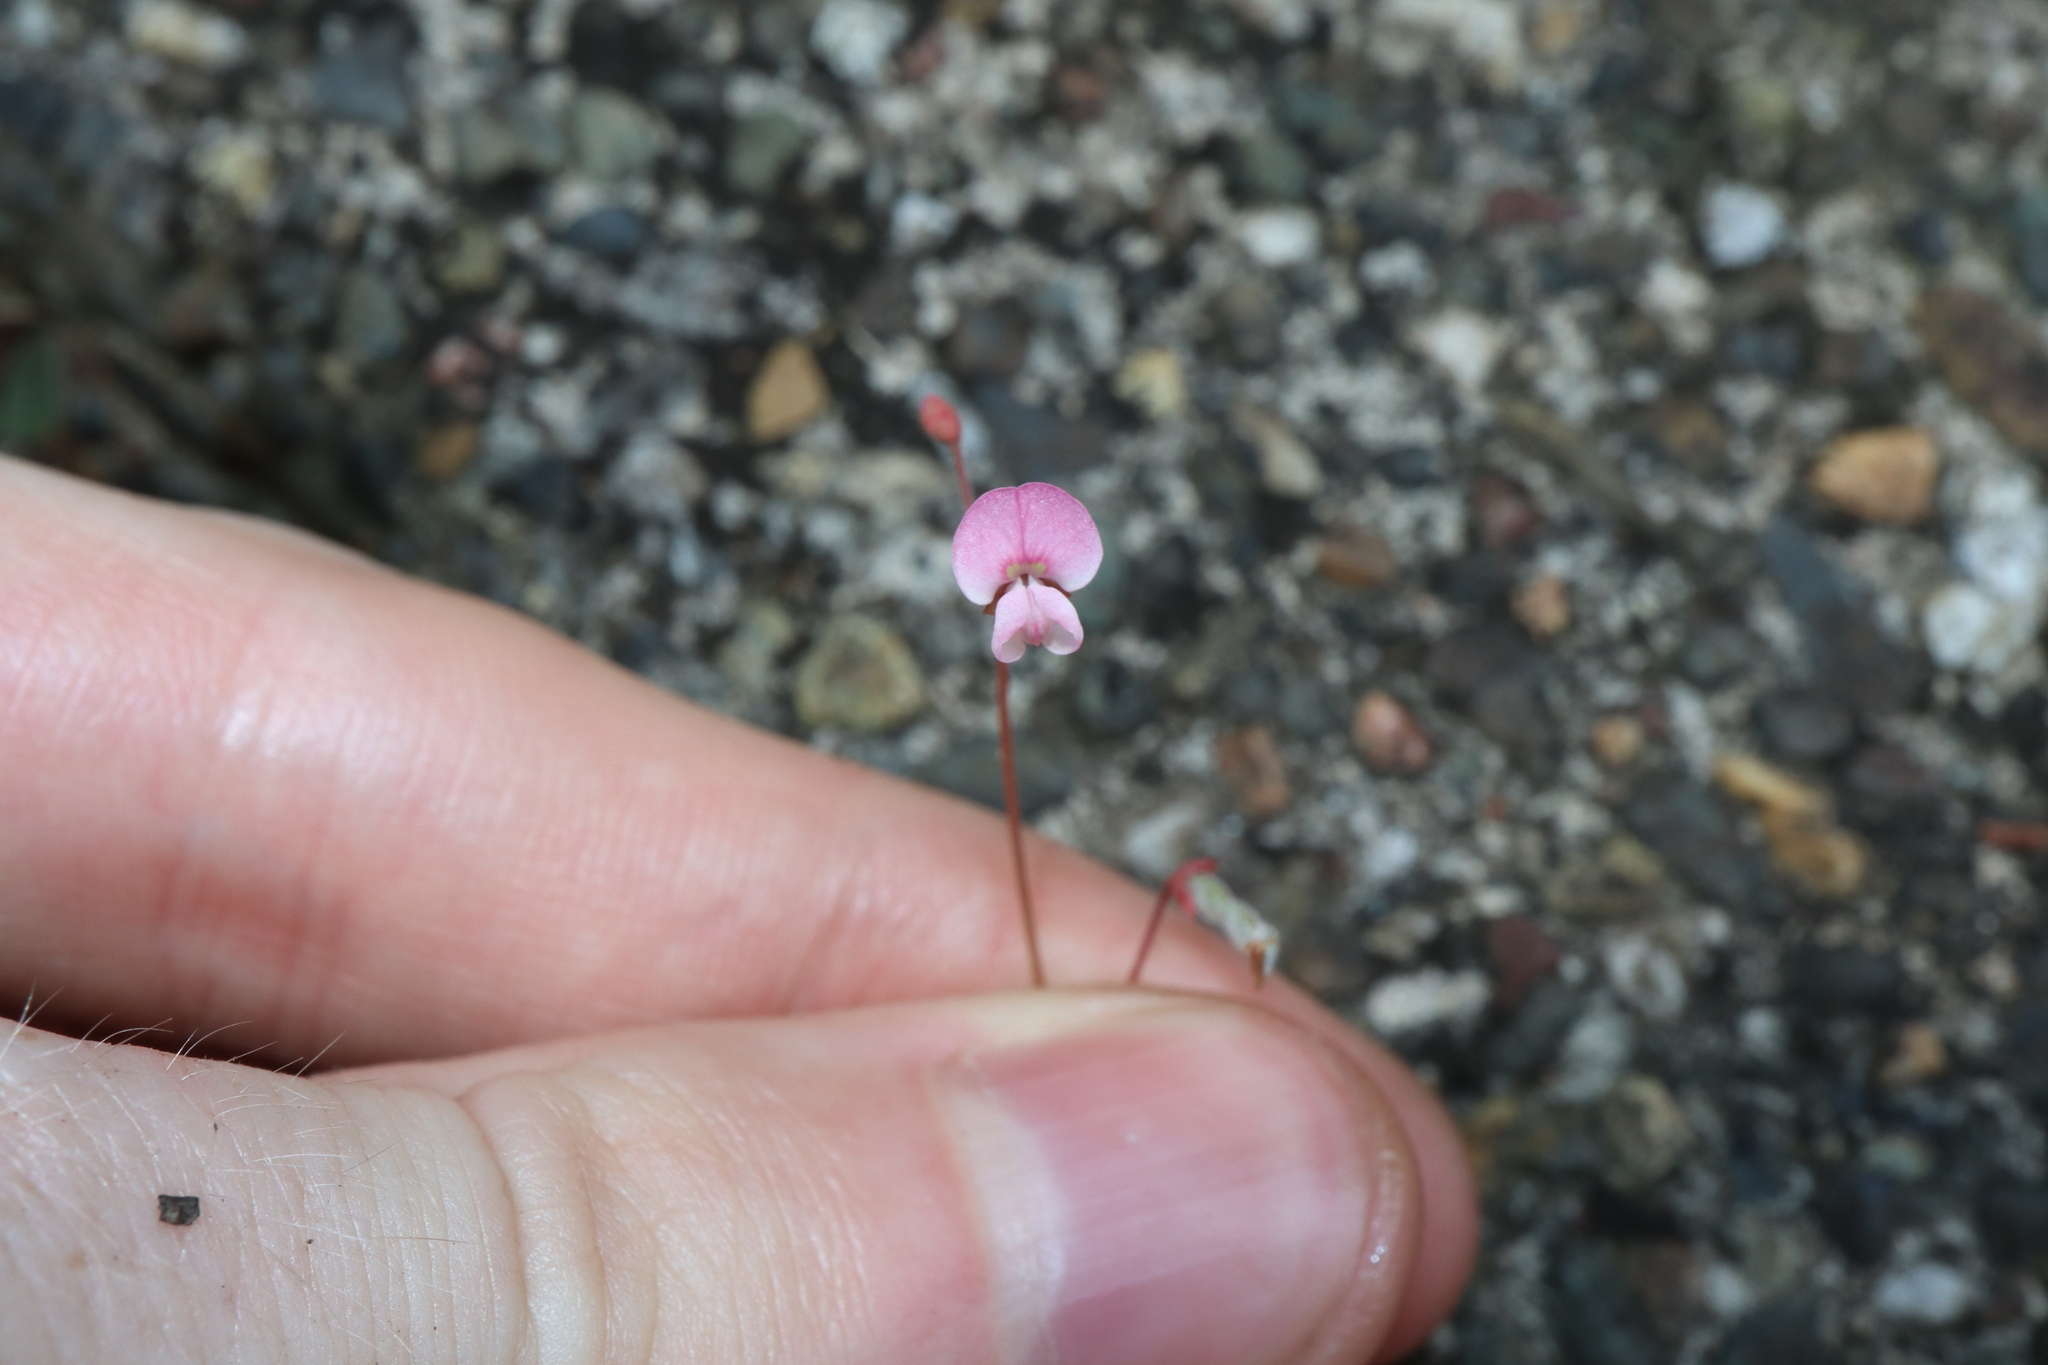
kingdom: Plantae
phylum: Tracheophyta
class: Magnoliopsida
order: Fabales
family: Fabaceae
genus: Pullenia
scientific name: Pullenia gunnii
